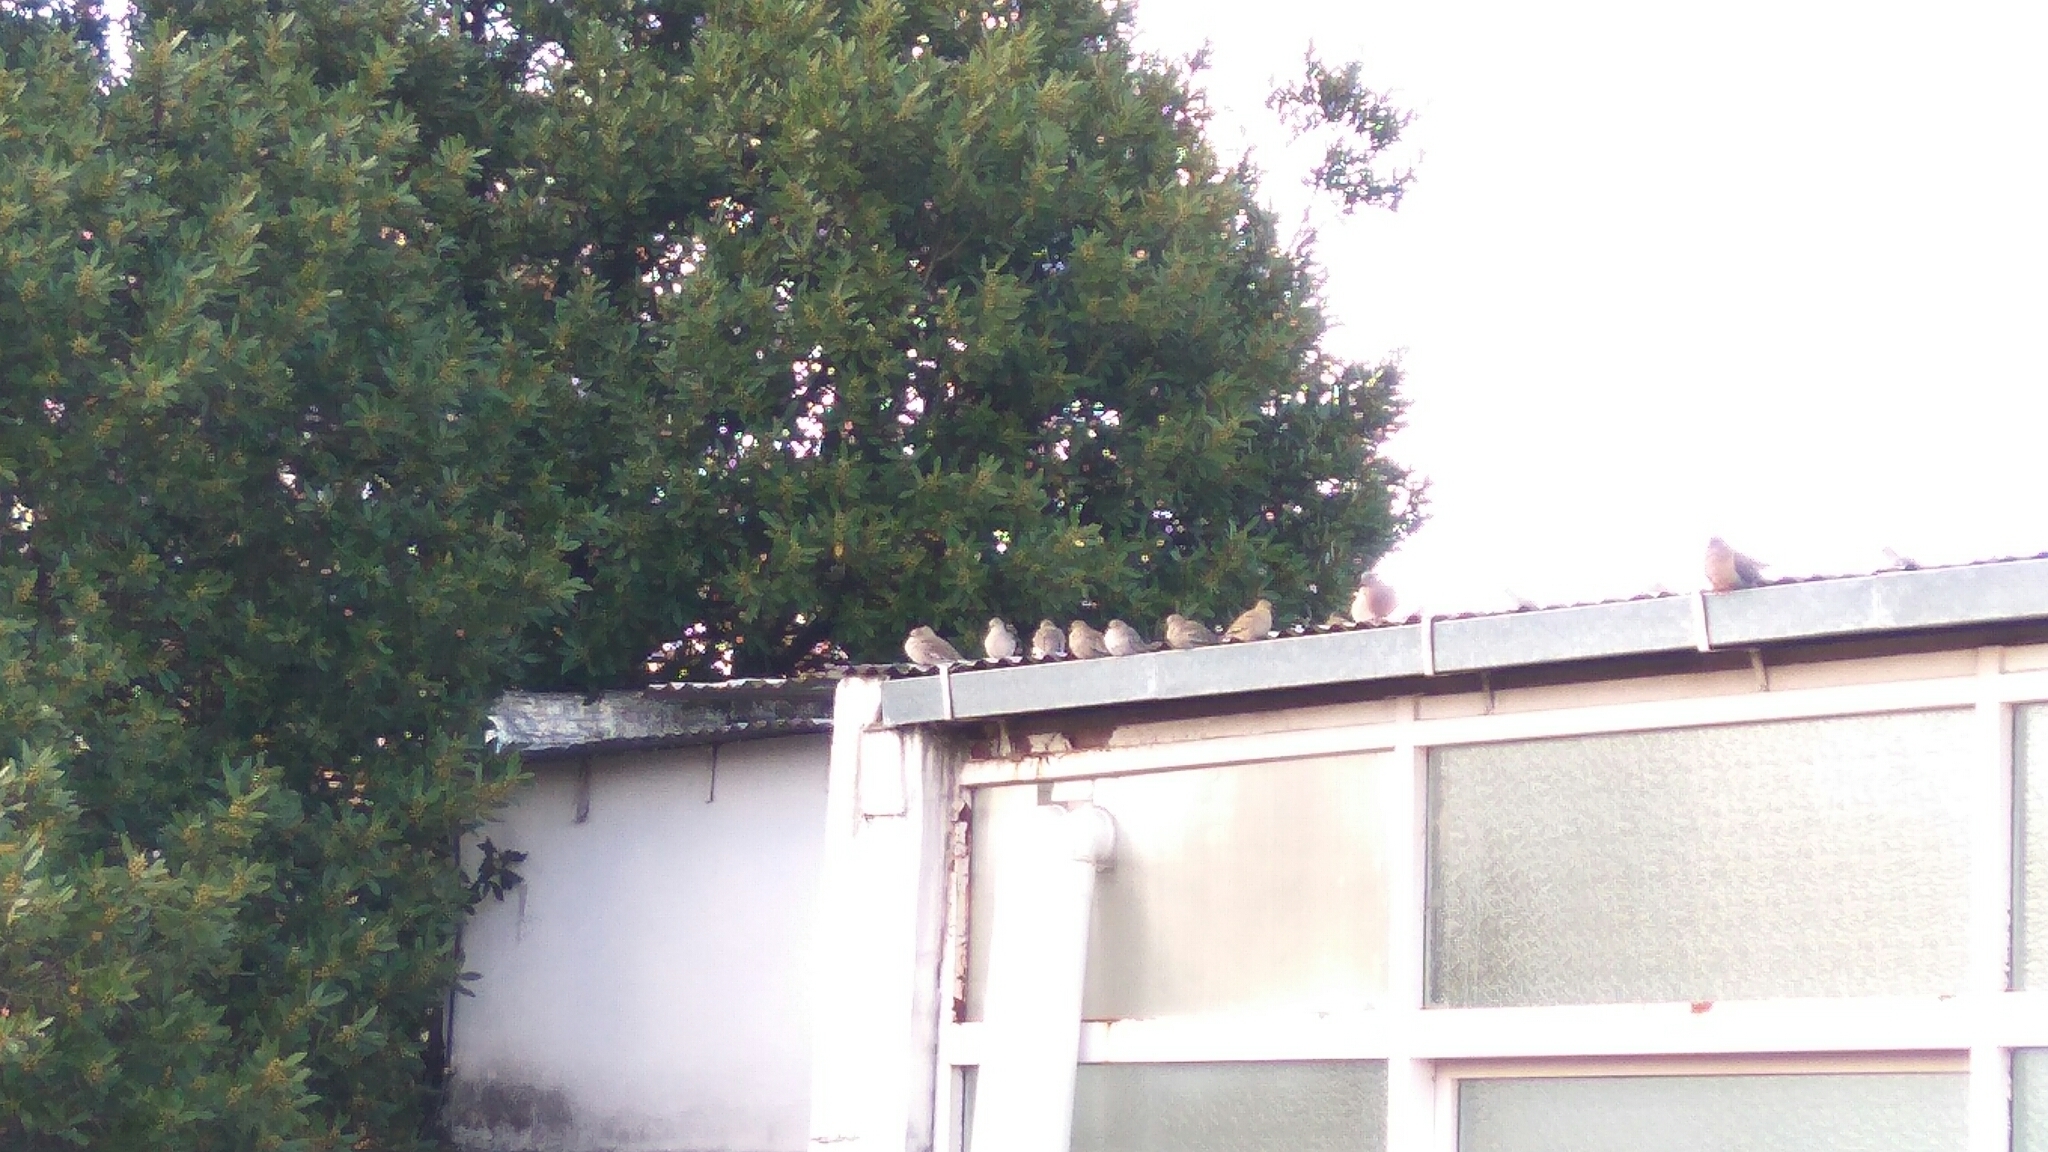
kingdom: Animalia
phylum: Chordata
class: Aves
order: Columbiformes
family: Columbidae
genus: Columbina
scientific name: Columbina picui
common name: Picui ground dove
